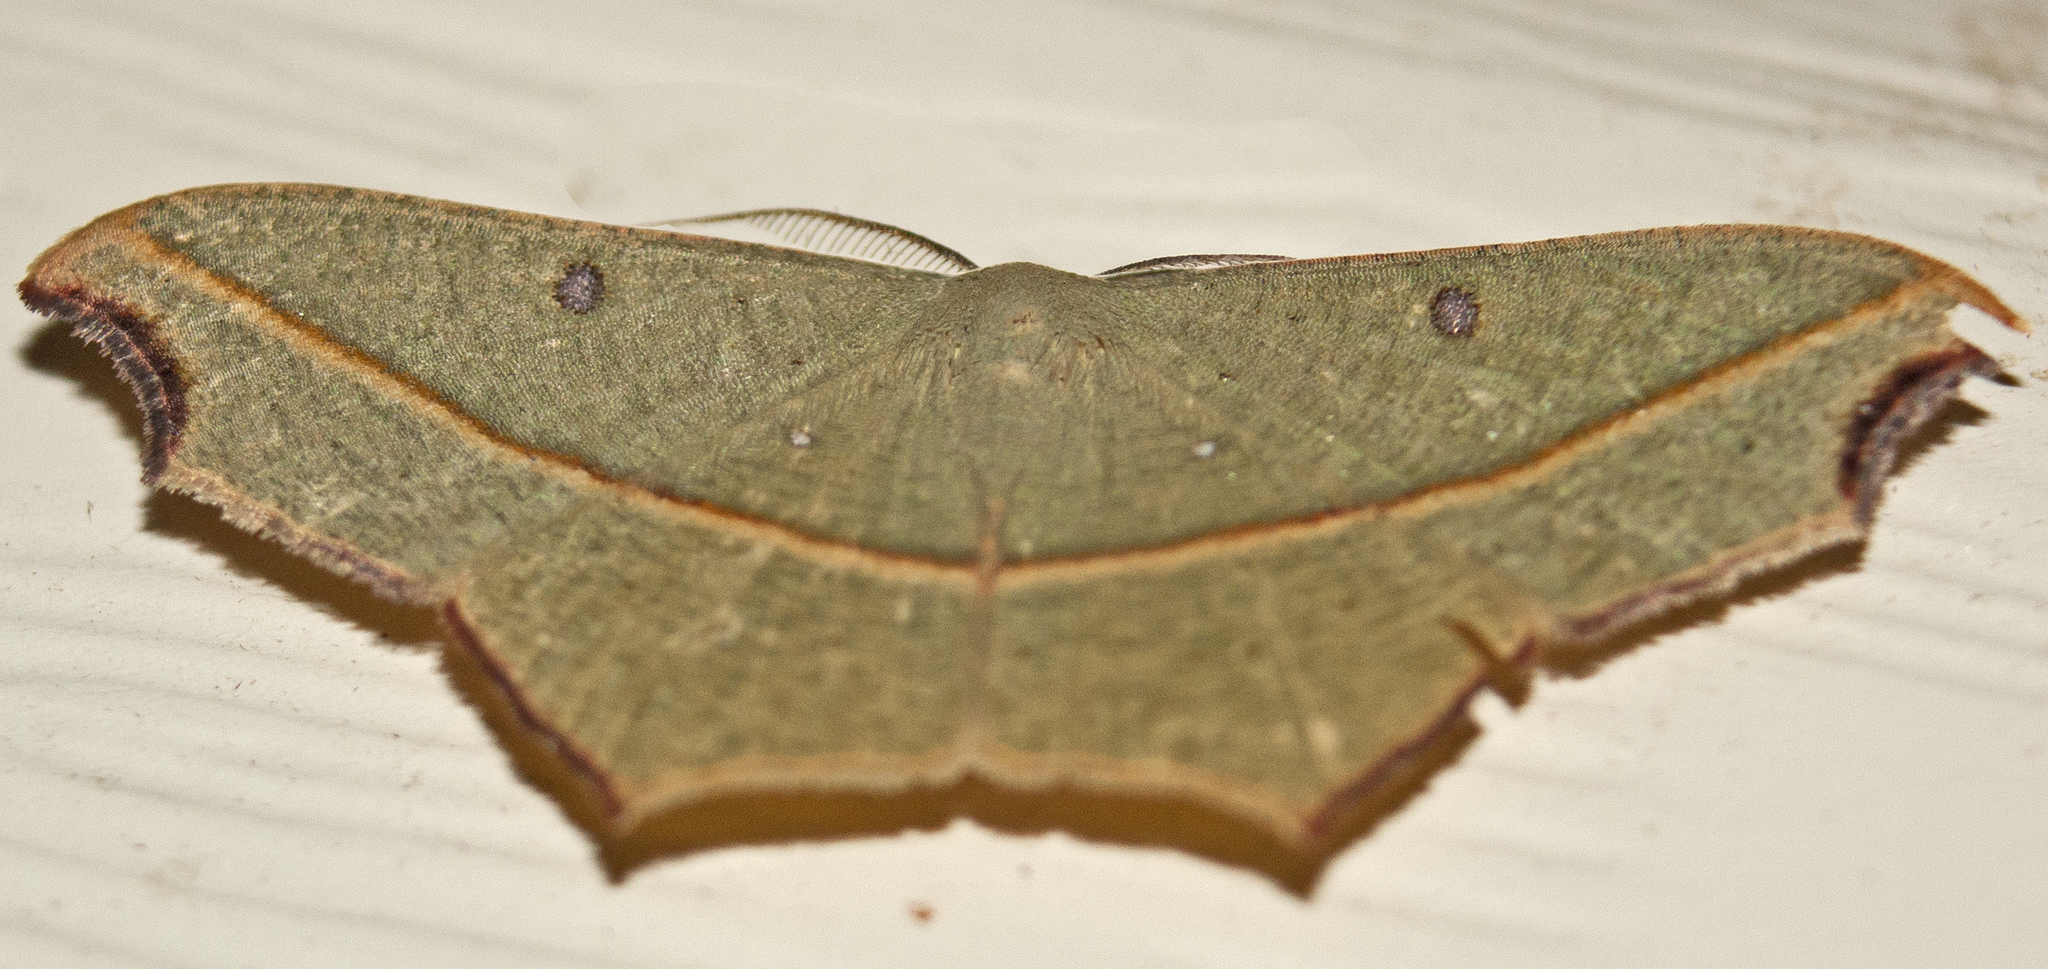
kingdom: Animalia
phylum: Arthropoda
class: Insecta
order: Lepidoptera
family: Geometridae
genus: Traminda
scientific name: Traminda aventiaria
